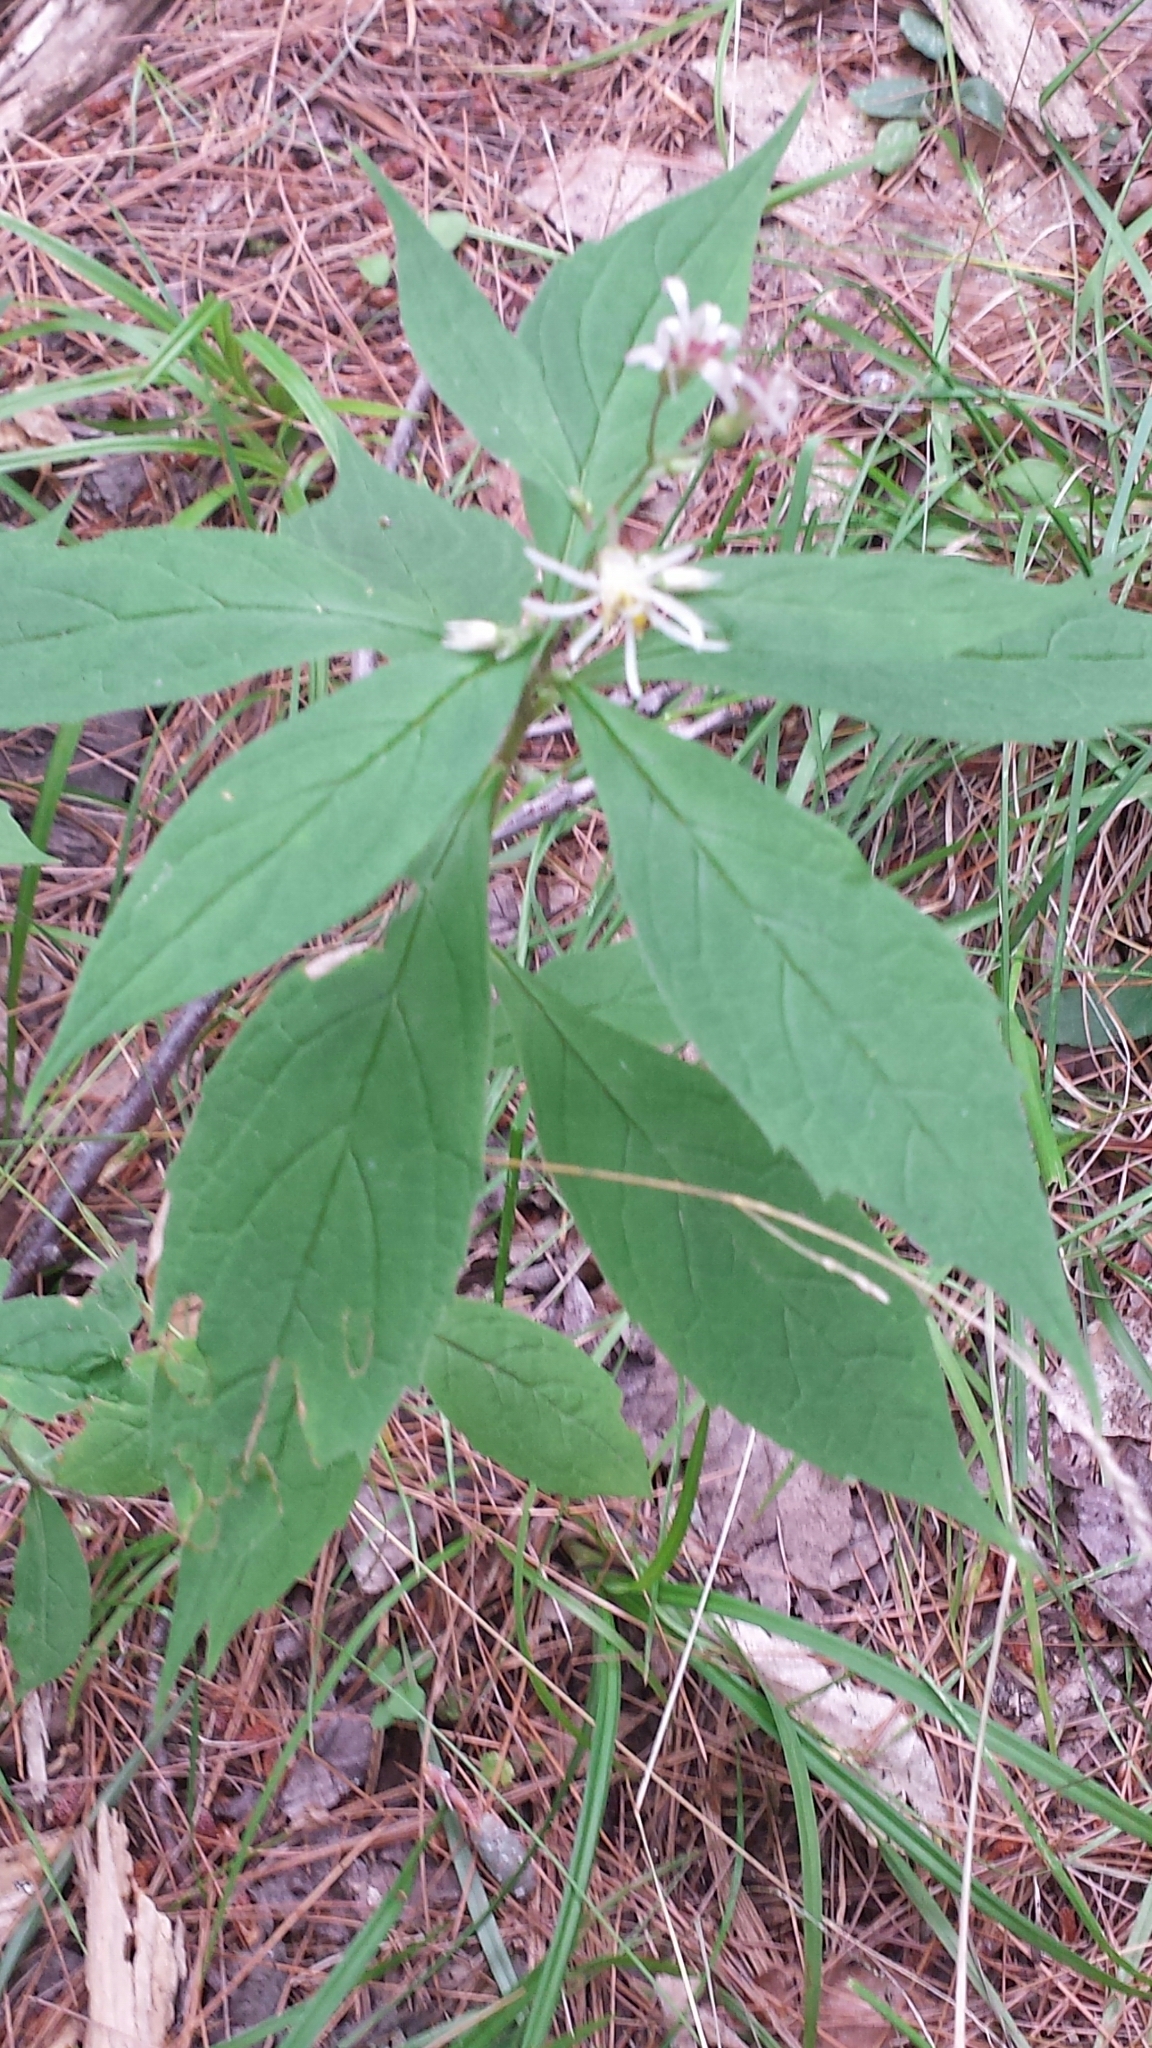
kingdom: Plantae
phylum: Tracheophyta
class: Magnoliopsida
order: Asterales
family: Asteraceae
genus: Oclemena
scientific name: Oclemena acuminata
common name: Mountain aster
